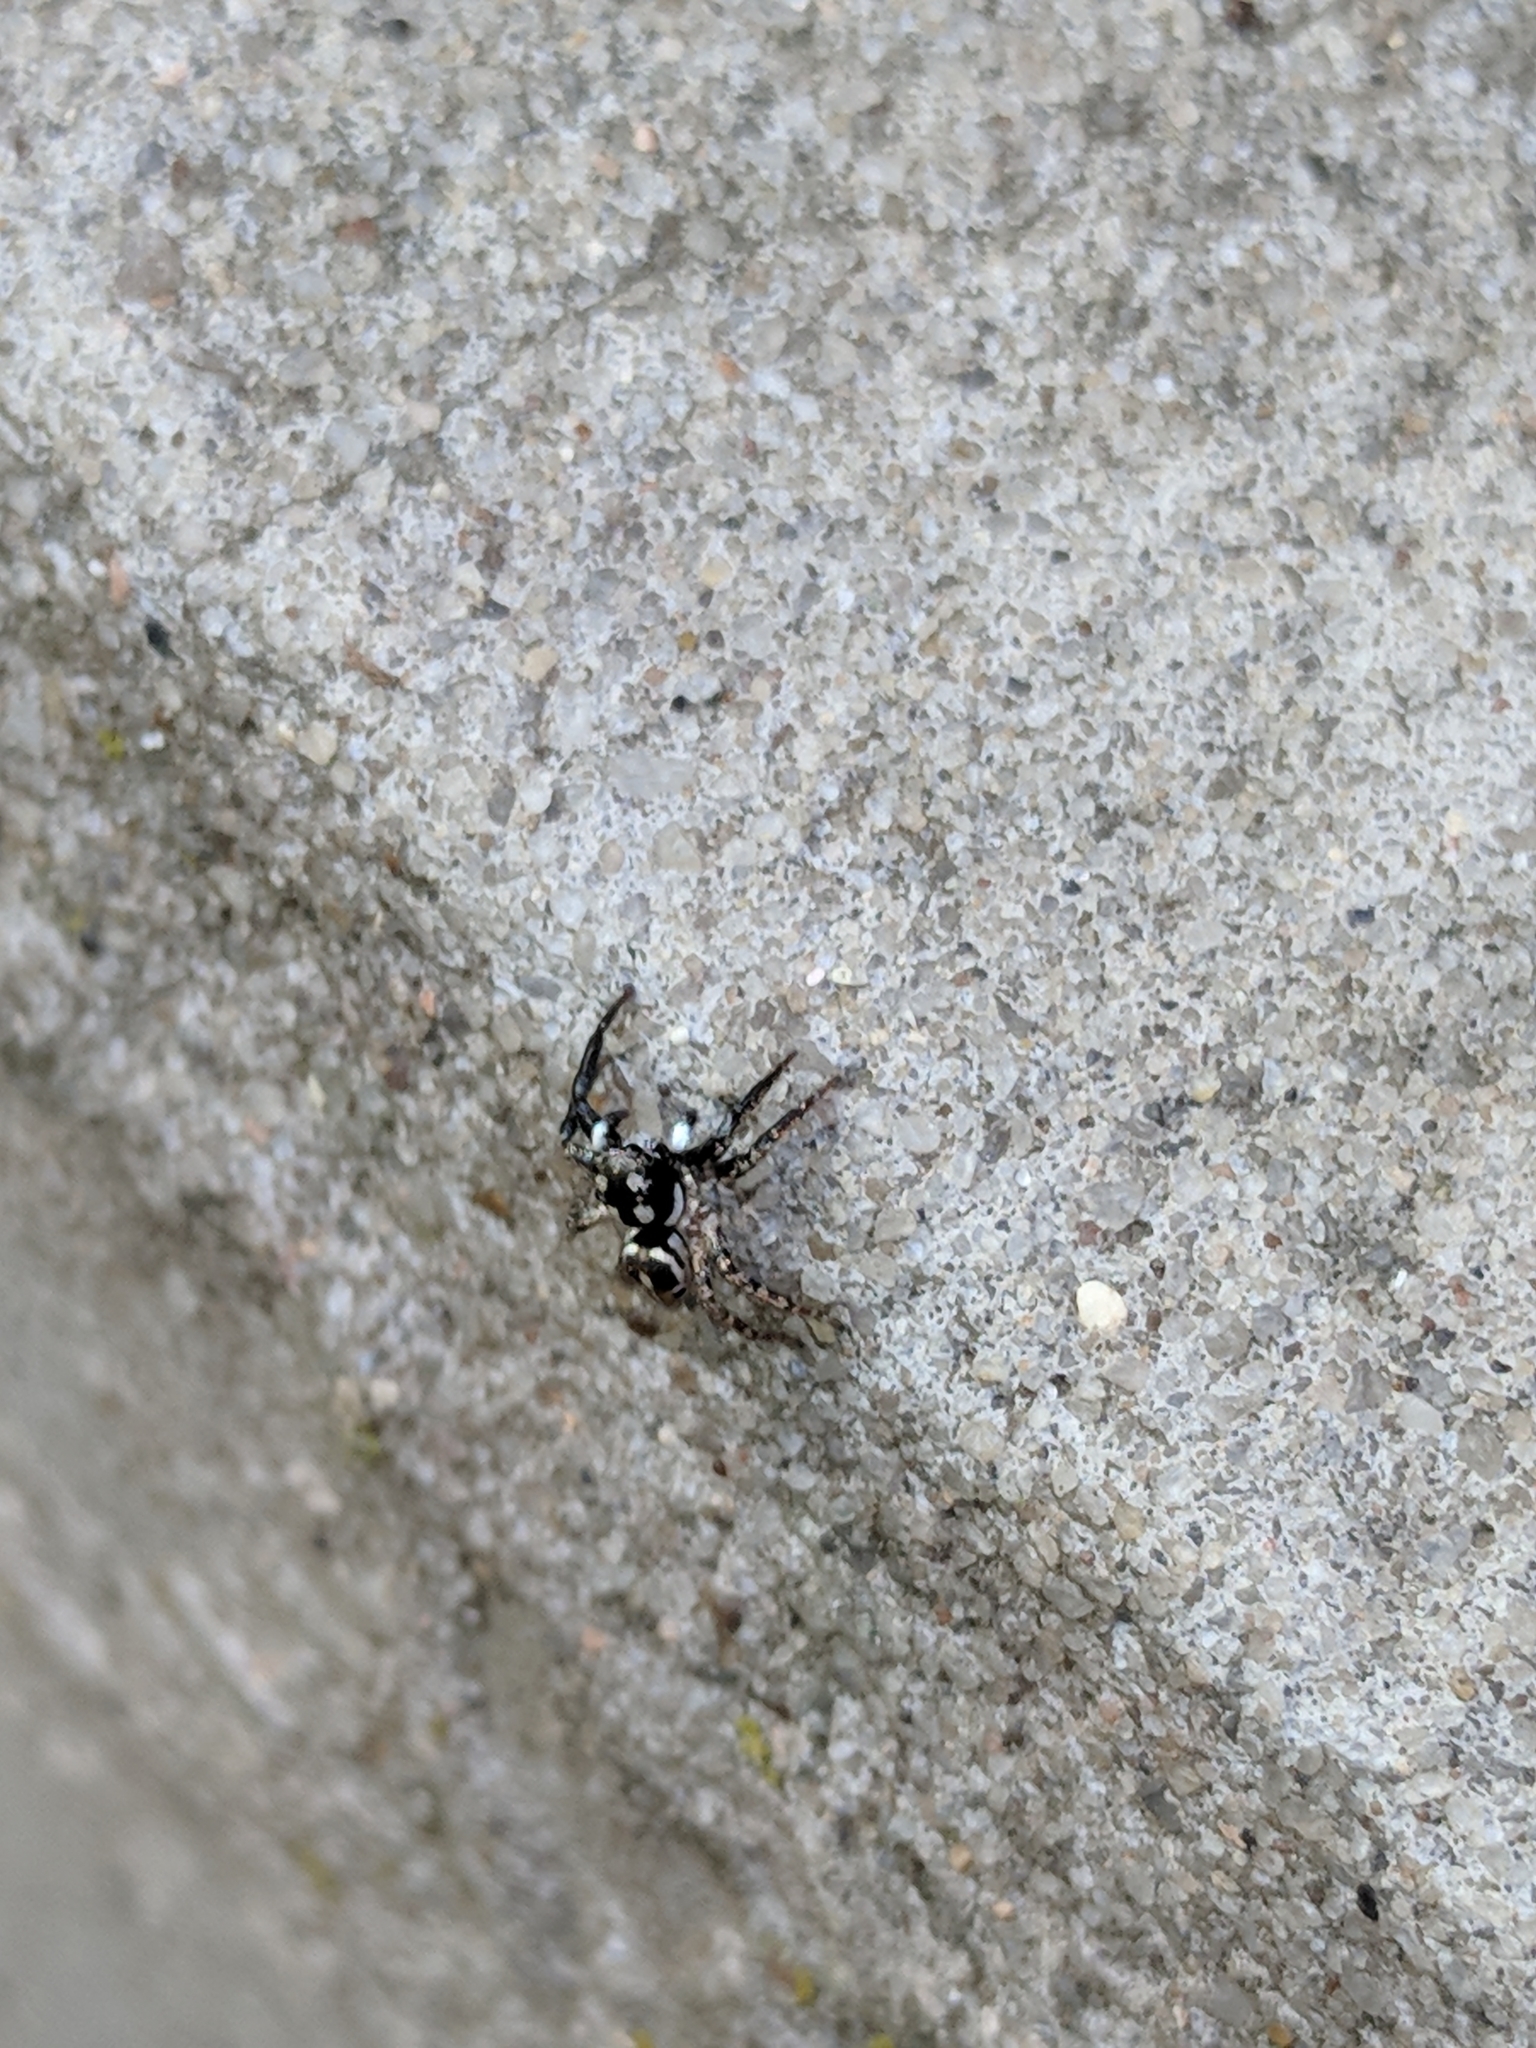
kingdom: Animalia
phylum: Arthropoda
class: Arachnida
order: Araneae
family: Salticidae
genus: Anasaitis
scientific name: Anasaitis canosa
